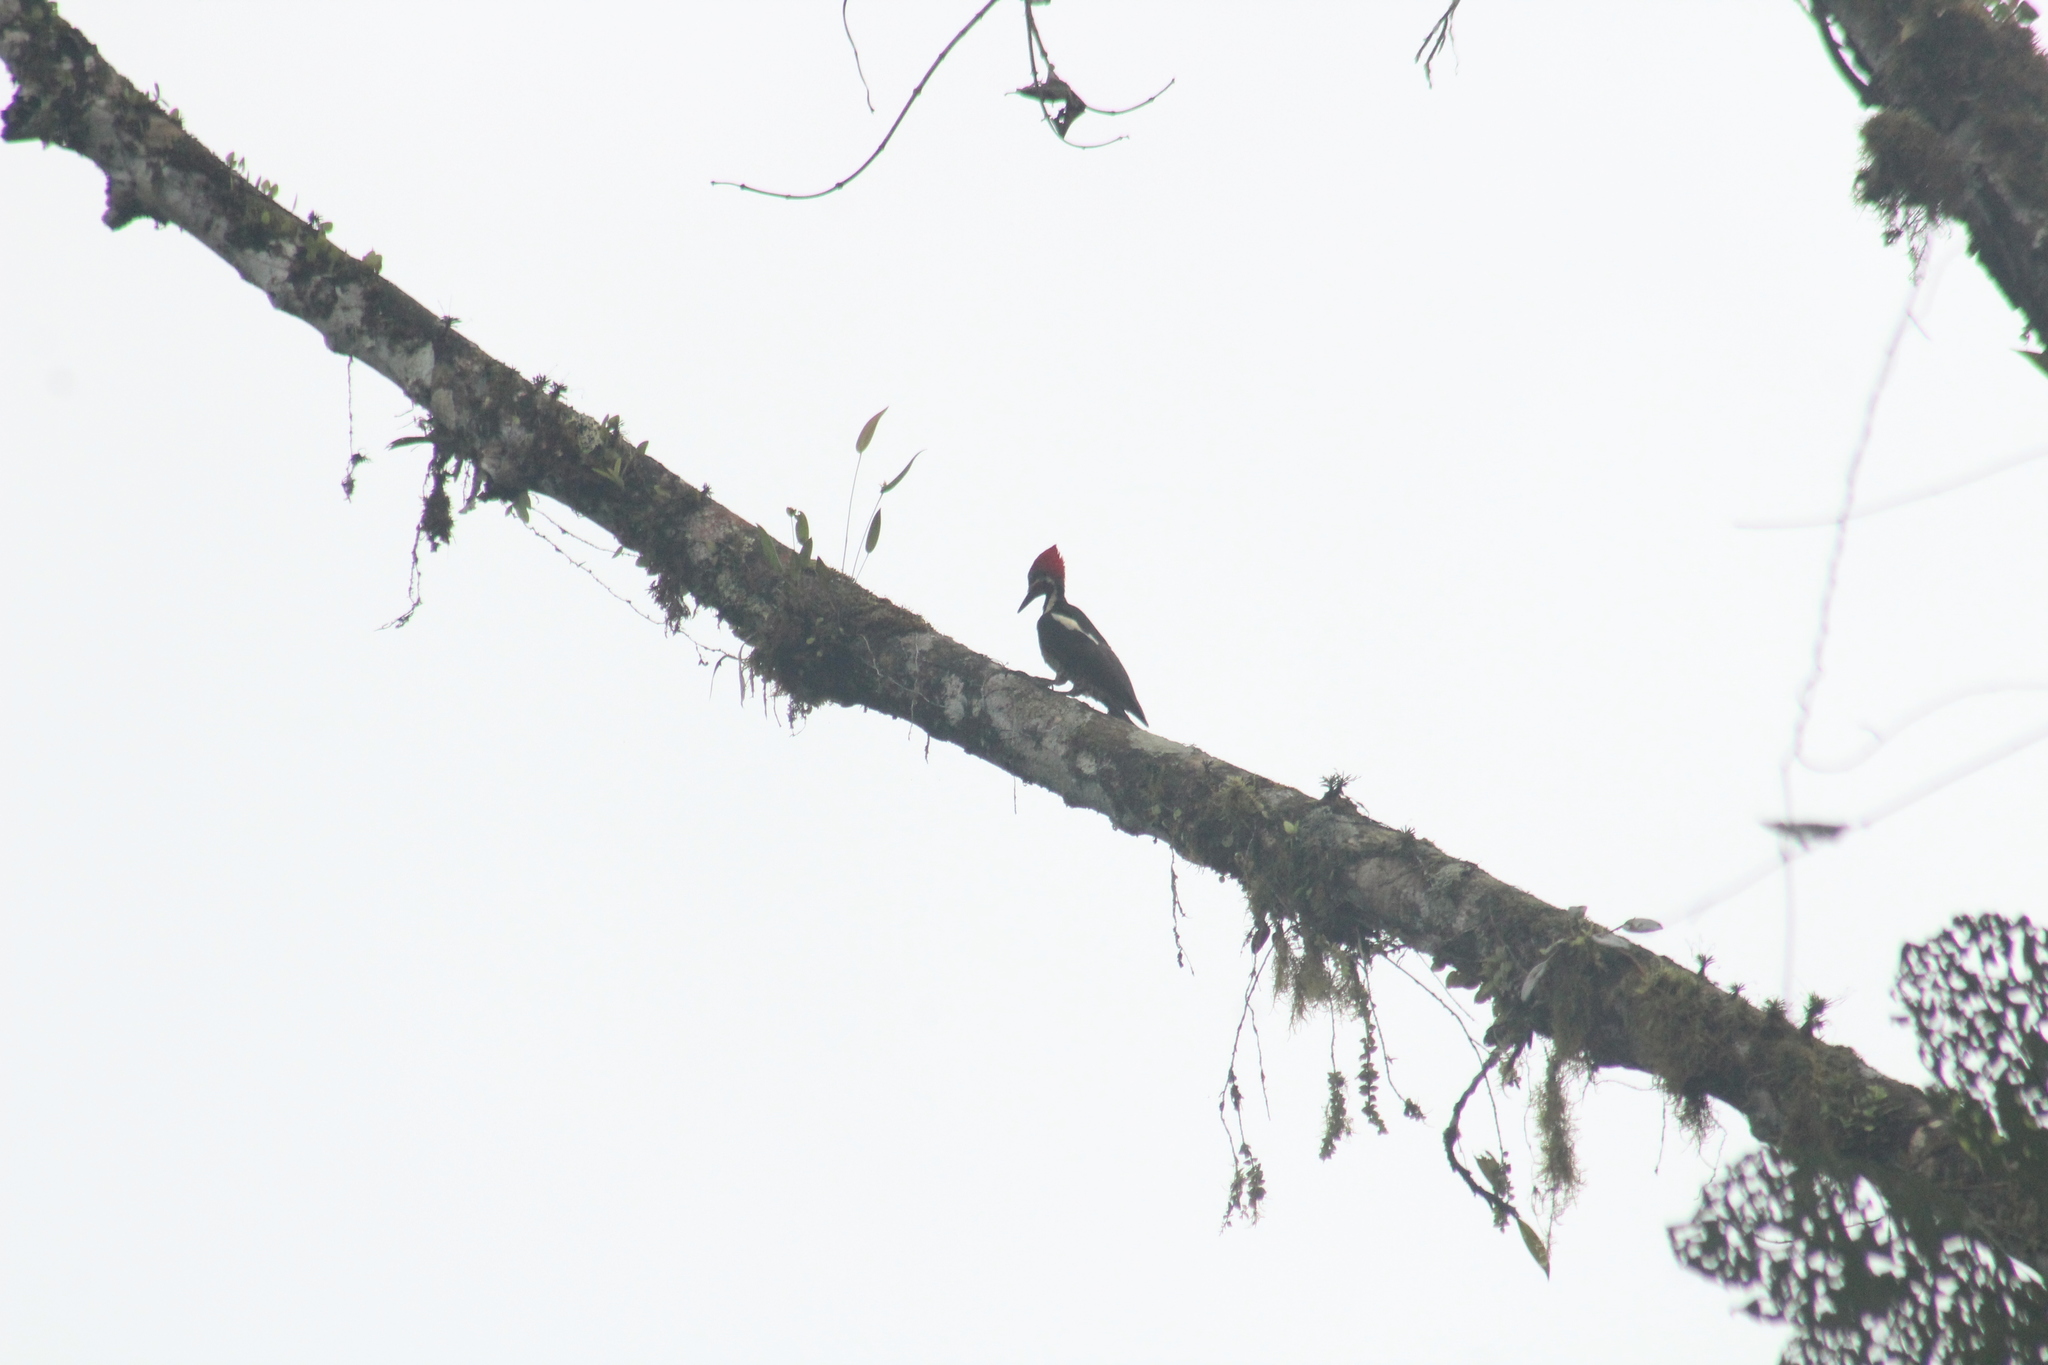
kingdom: Animalia
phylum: Chordata
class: Aves
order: Piciformes
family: Picidae
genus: Dryocopus
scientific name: Dryocopus lineatus
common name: Lineated woodpecker
